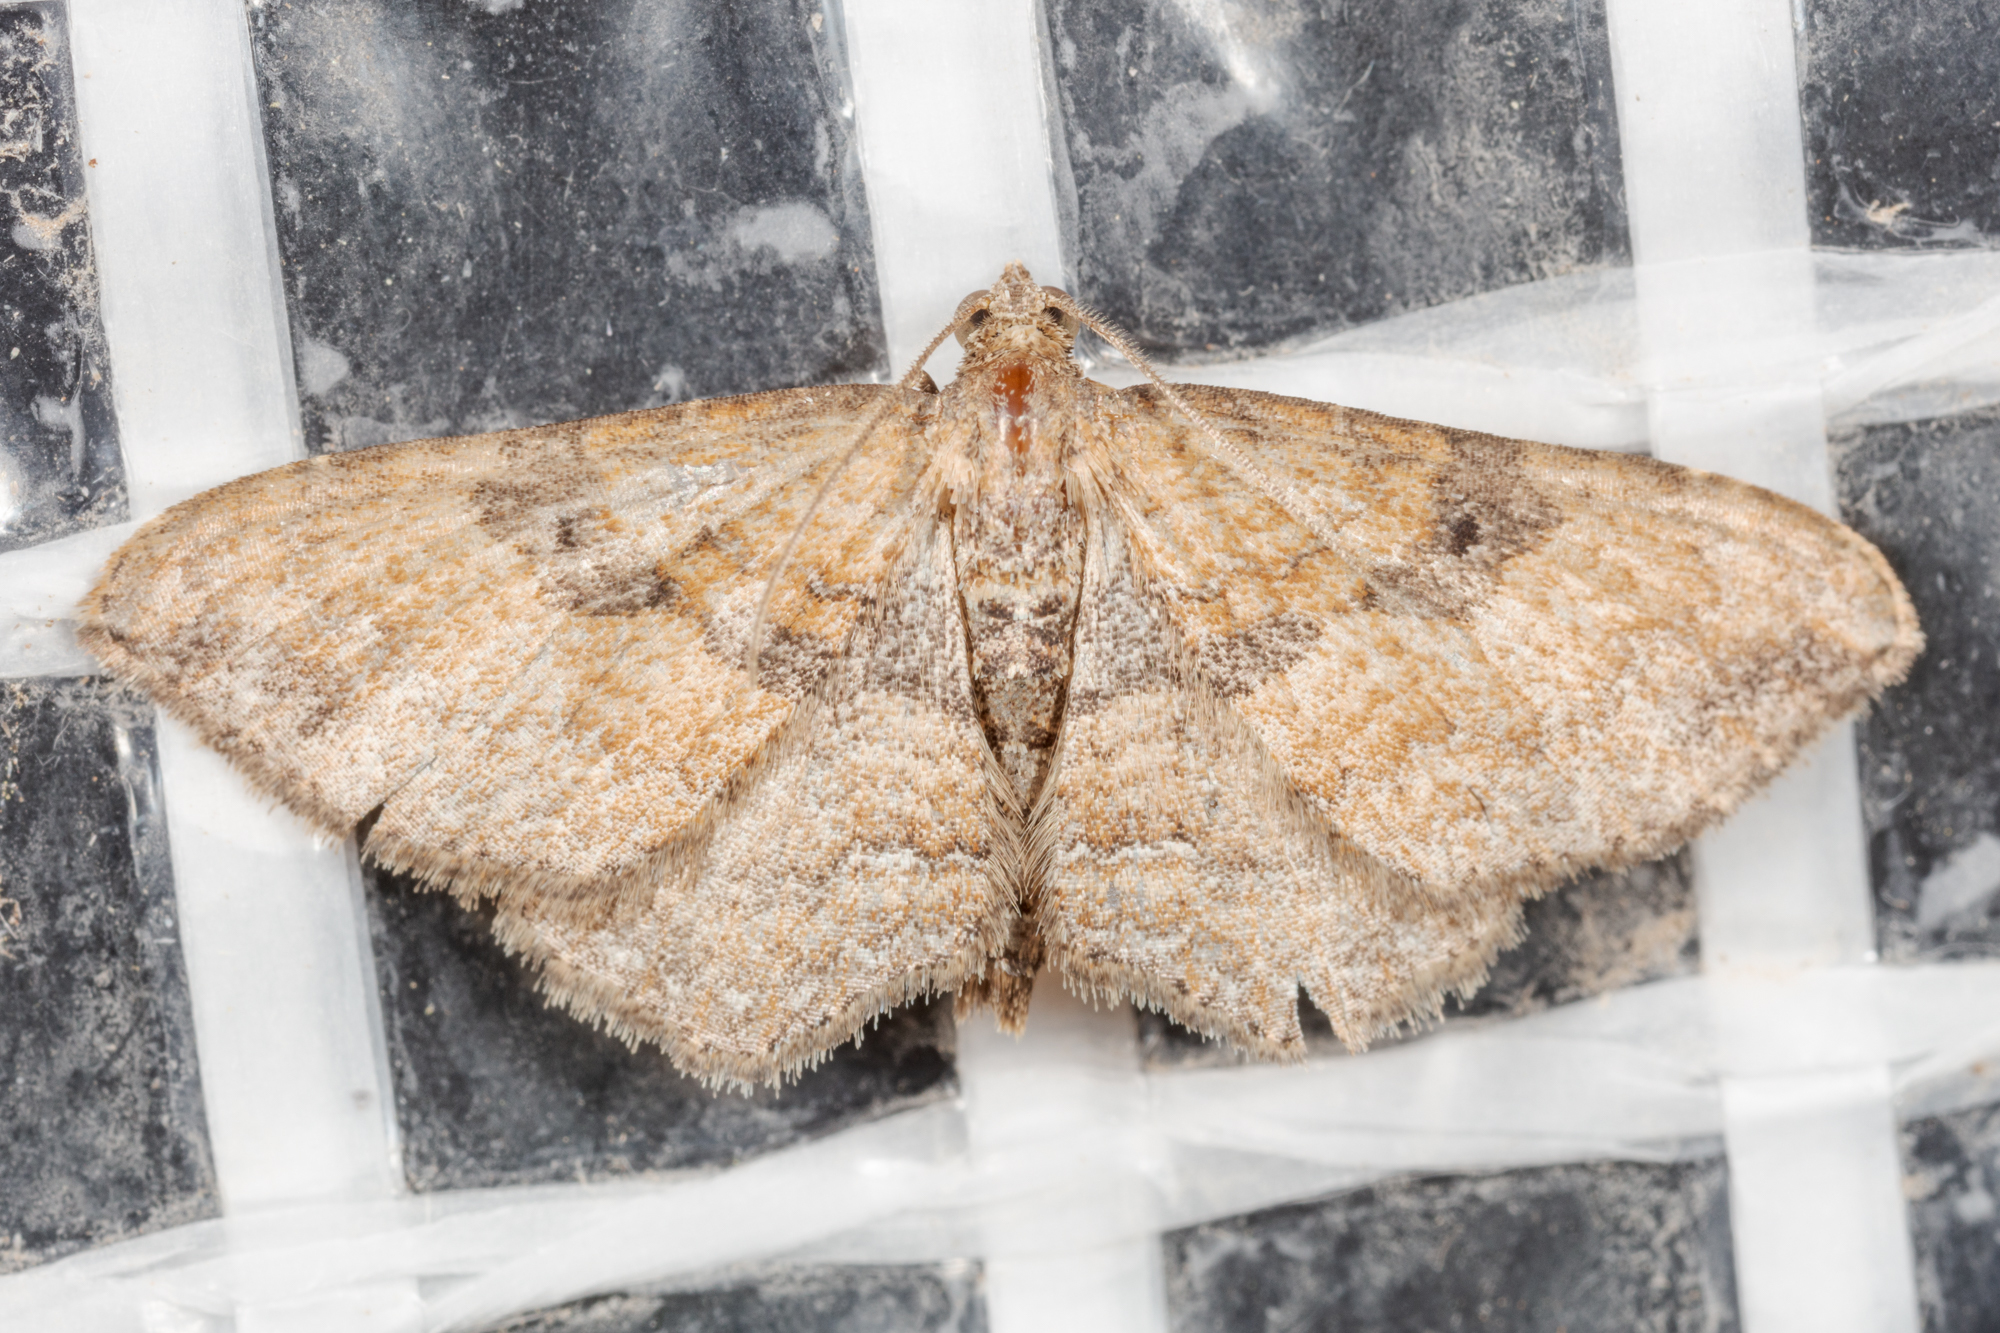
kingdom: Animalia
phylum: Arthropoda
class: Insecta
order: Lepidoptera
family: Geometridae
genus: Orthonama
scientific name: Orthonama obstipata
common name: The gem
